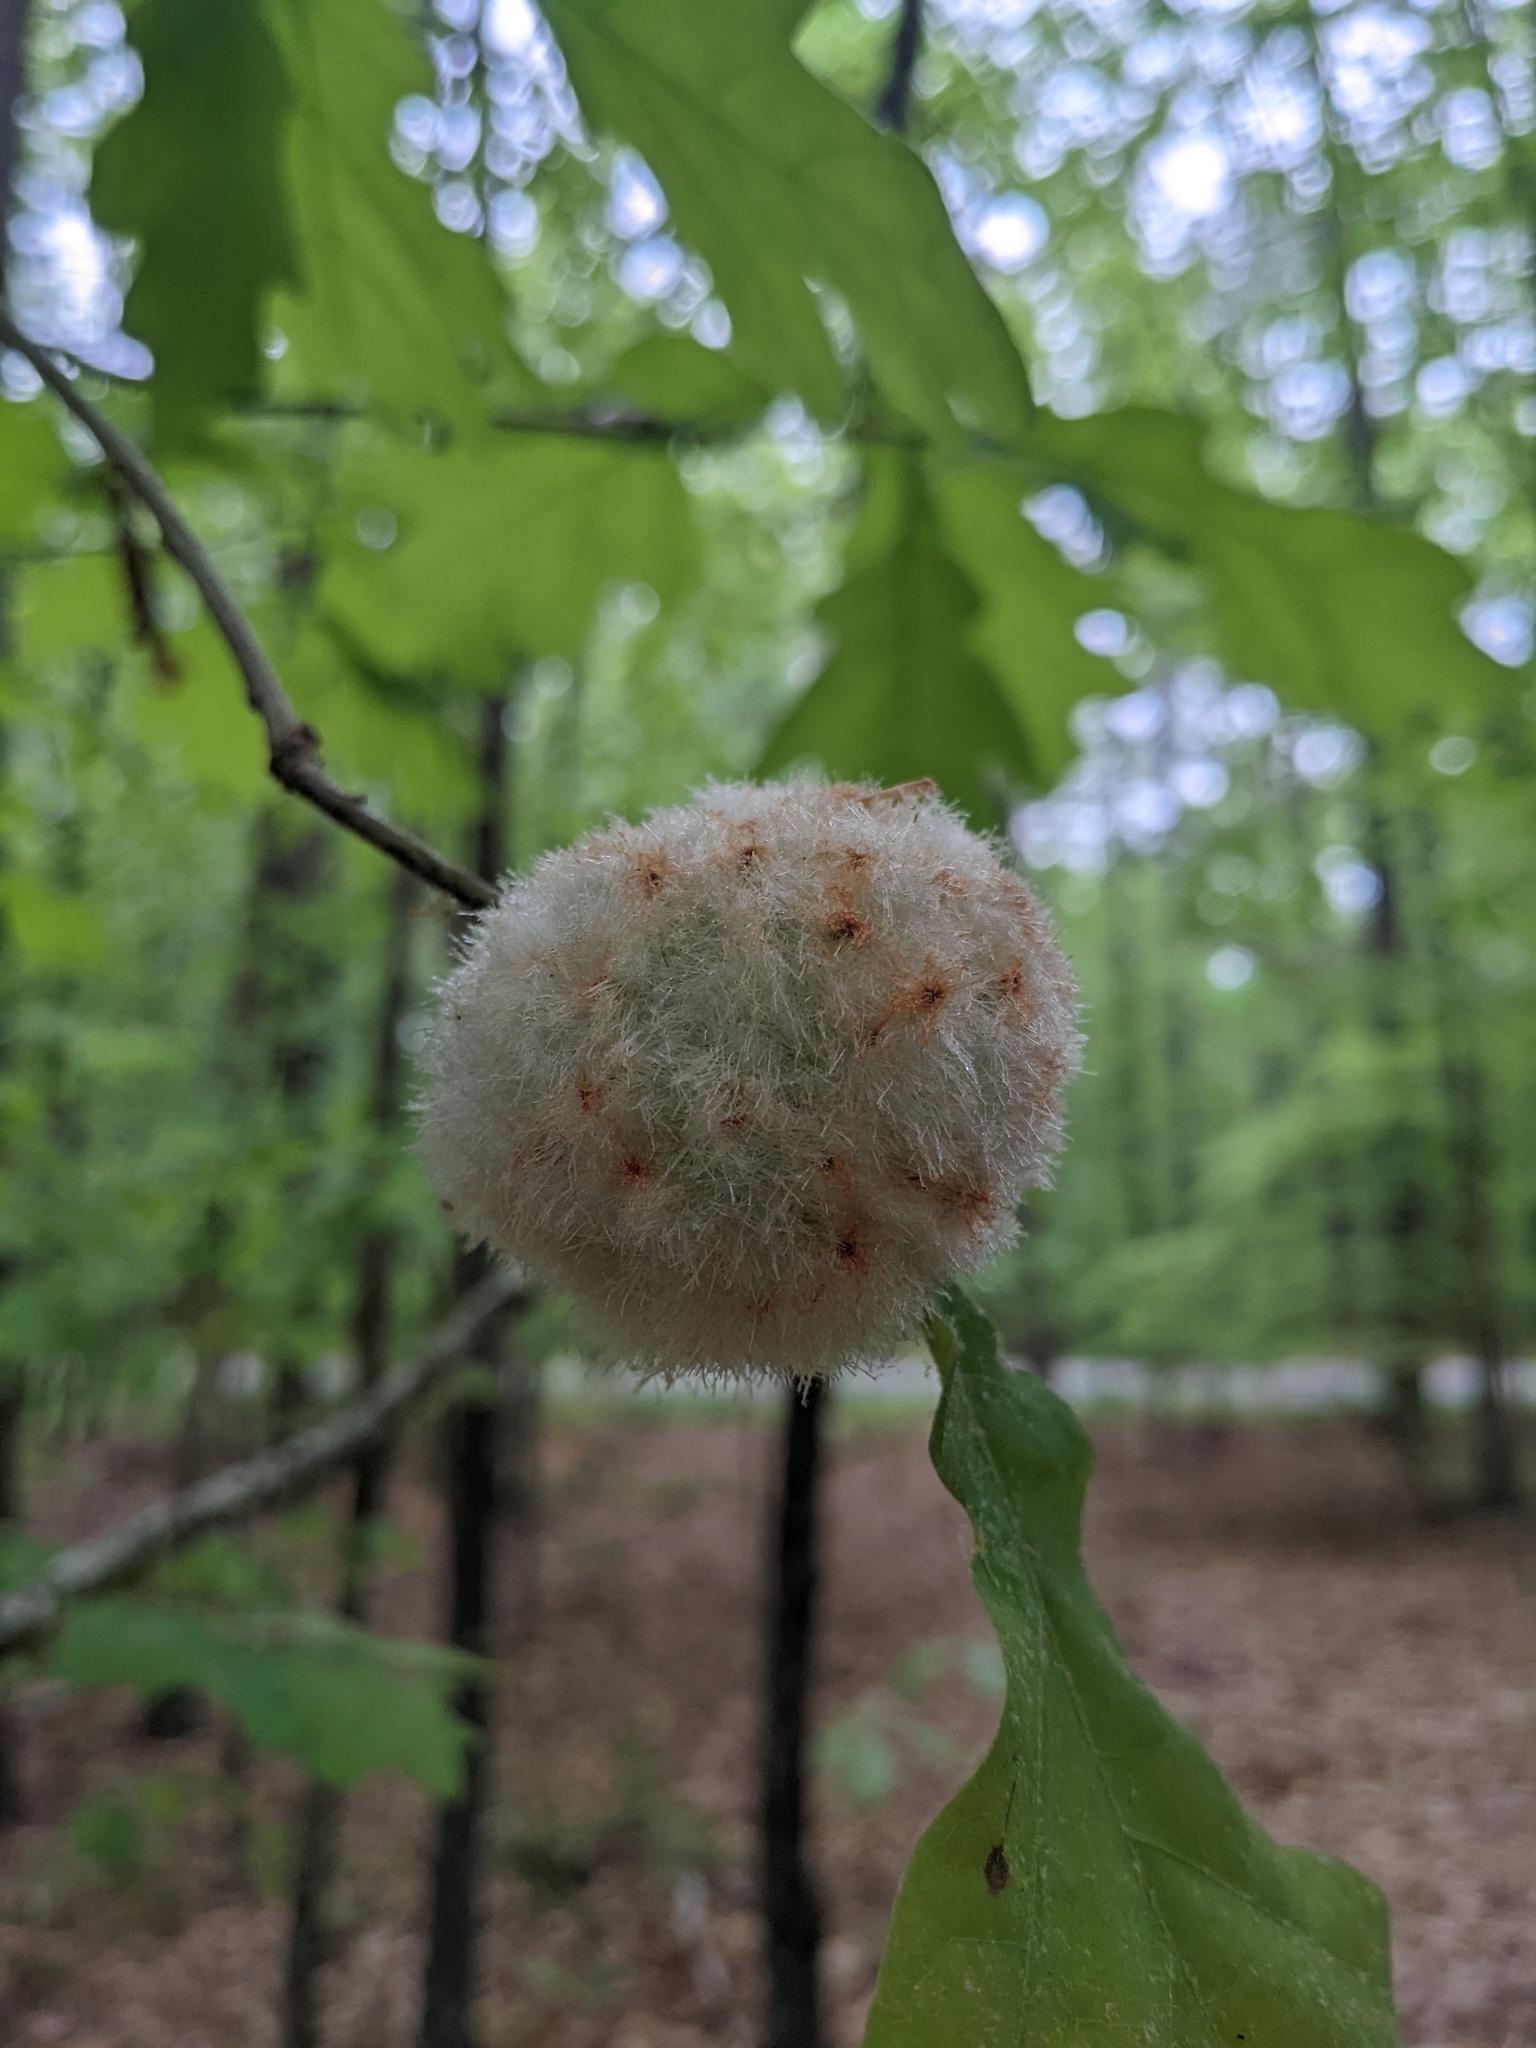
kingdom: Animalia
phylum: Arthropoda
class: Insecta
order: Hymenoptera
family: Cynipidae
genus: Callirhytis
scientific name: Callirhytis
